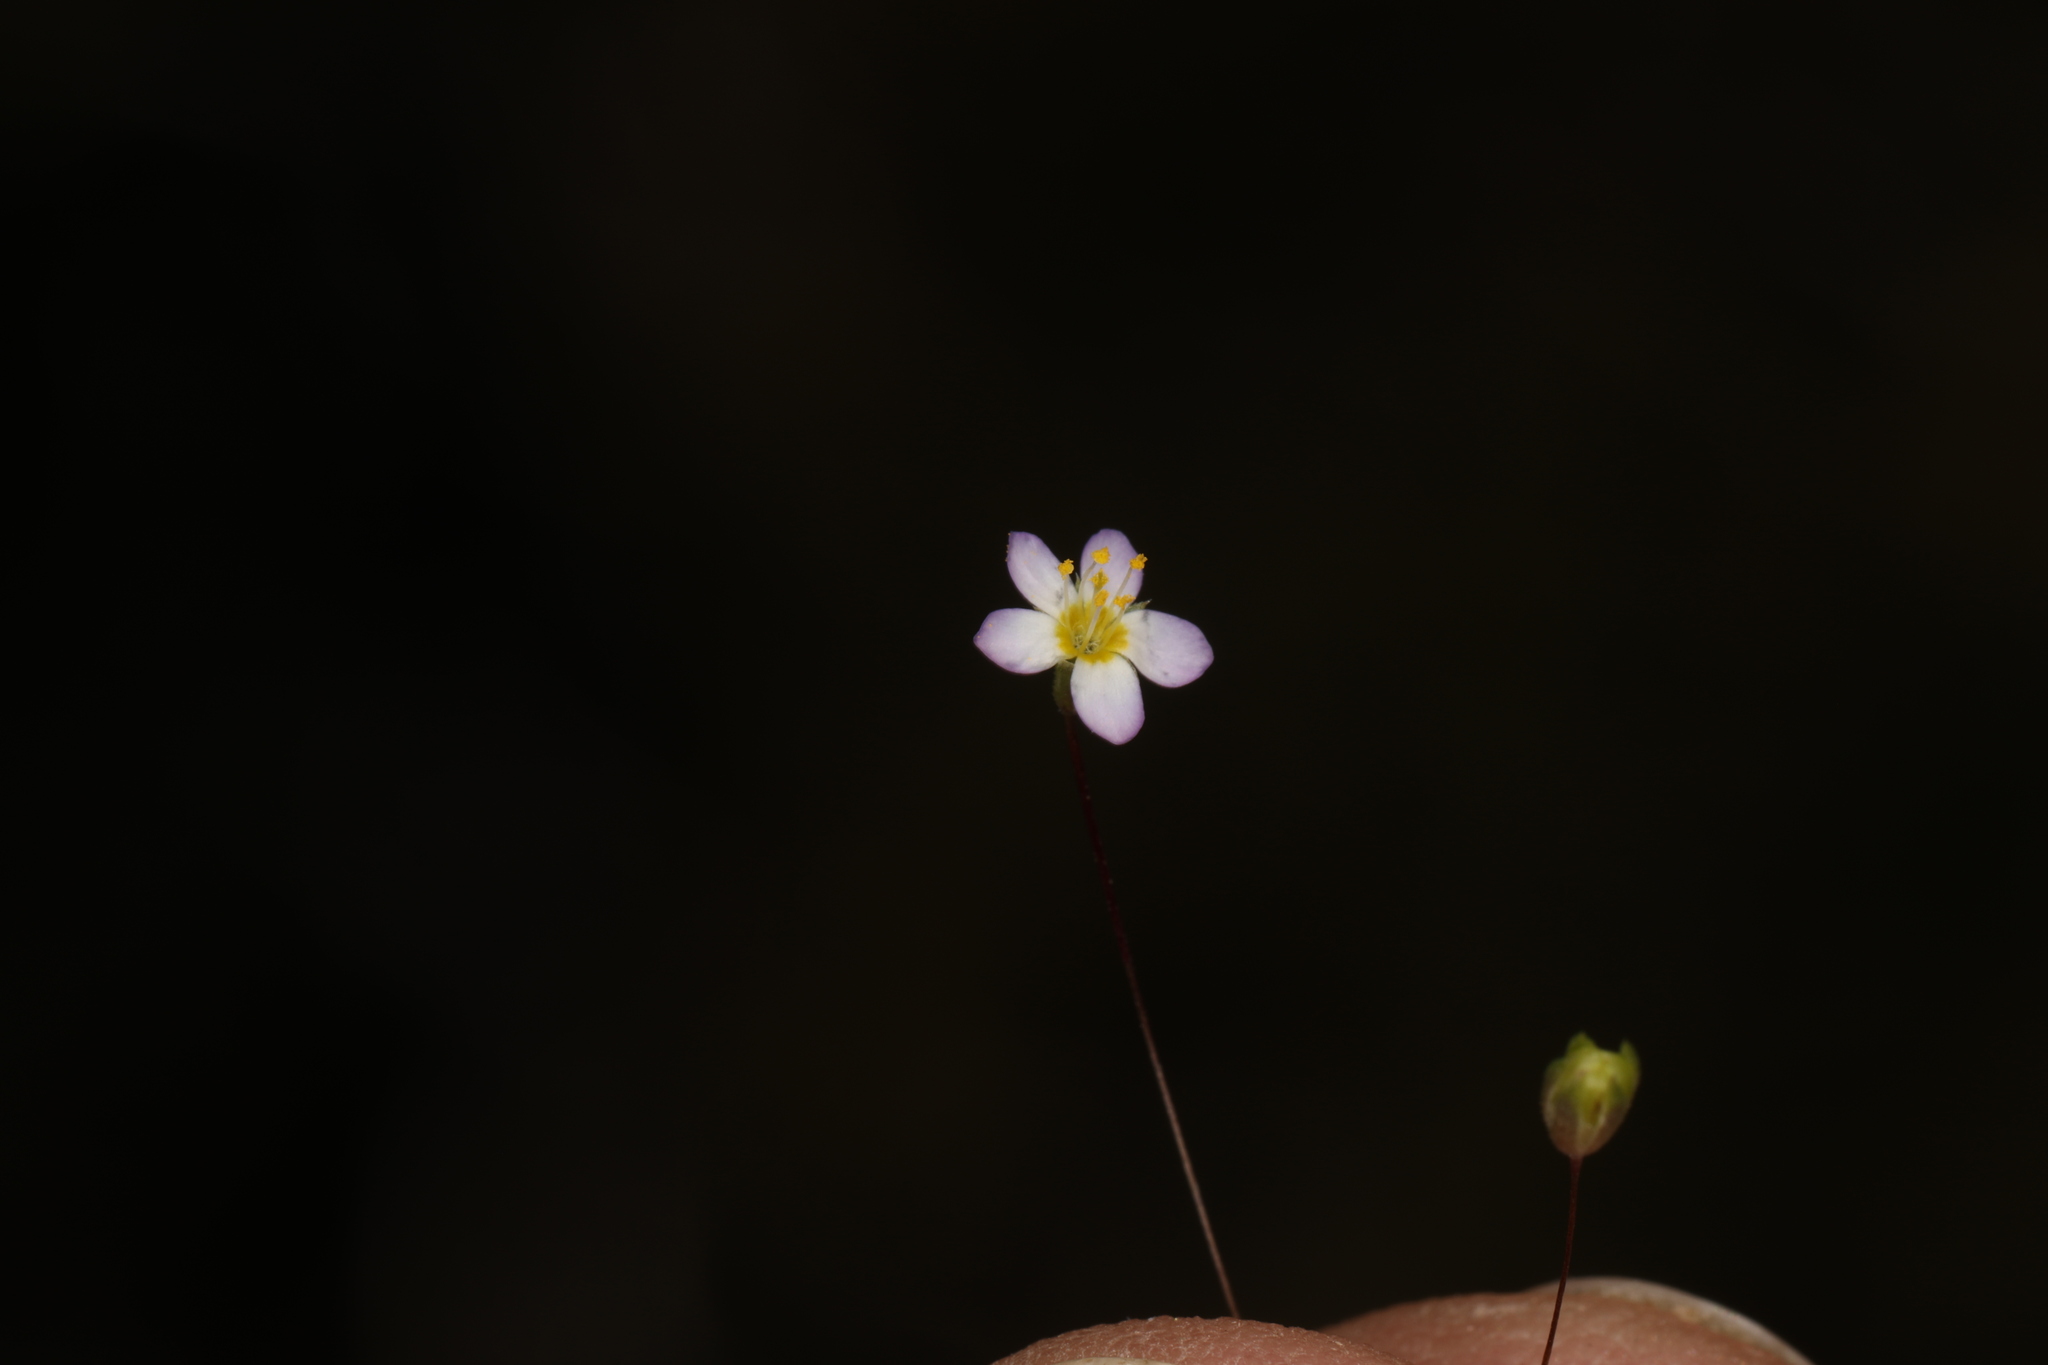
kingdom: Plantae
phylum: Tracheophyta
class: Magnoliopsida
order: Ericales
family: Polemoniaceae
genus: Leptosiphon
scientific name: Leptosiphon septentrionalis
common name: Northern linanthus
